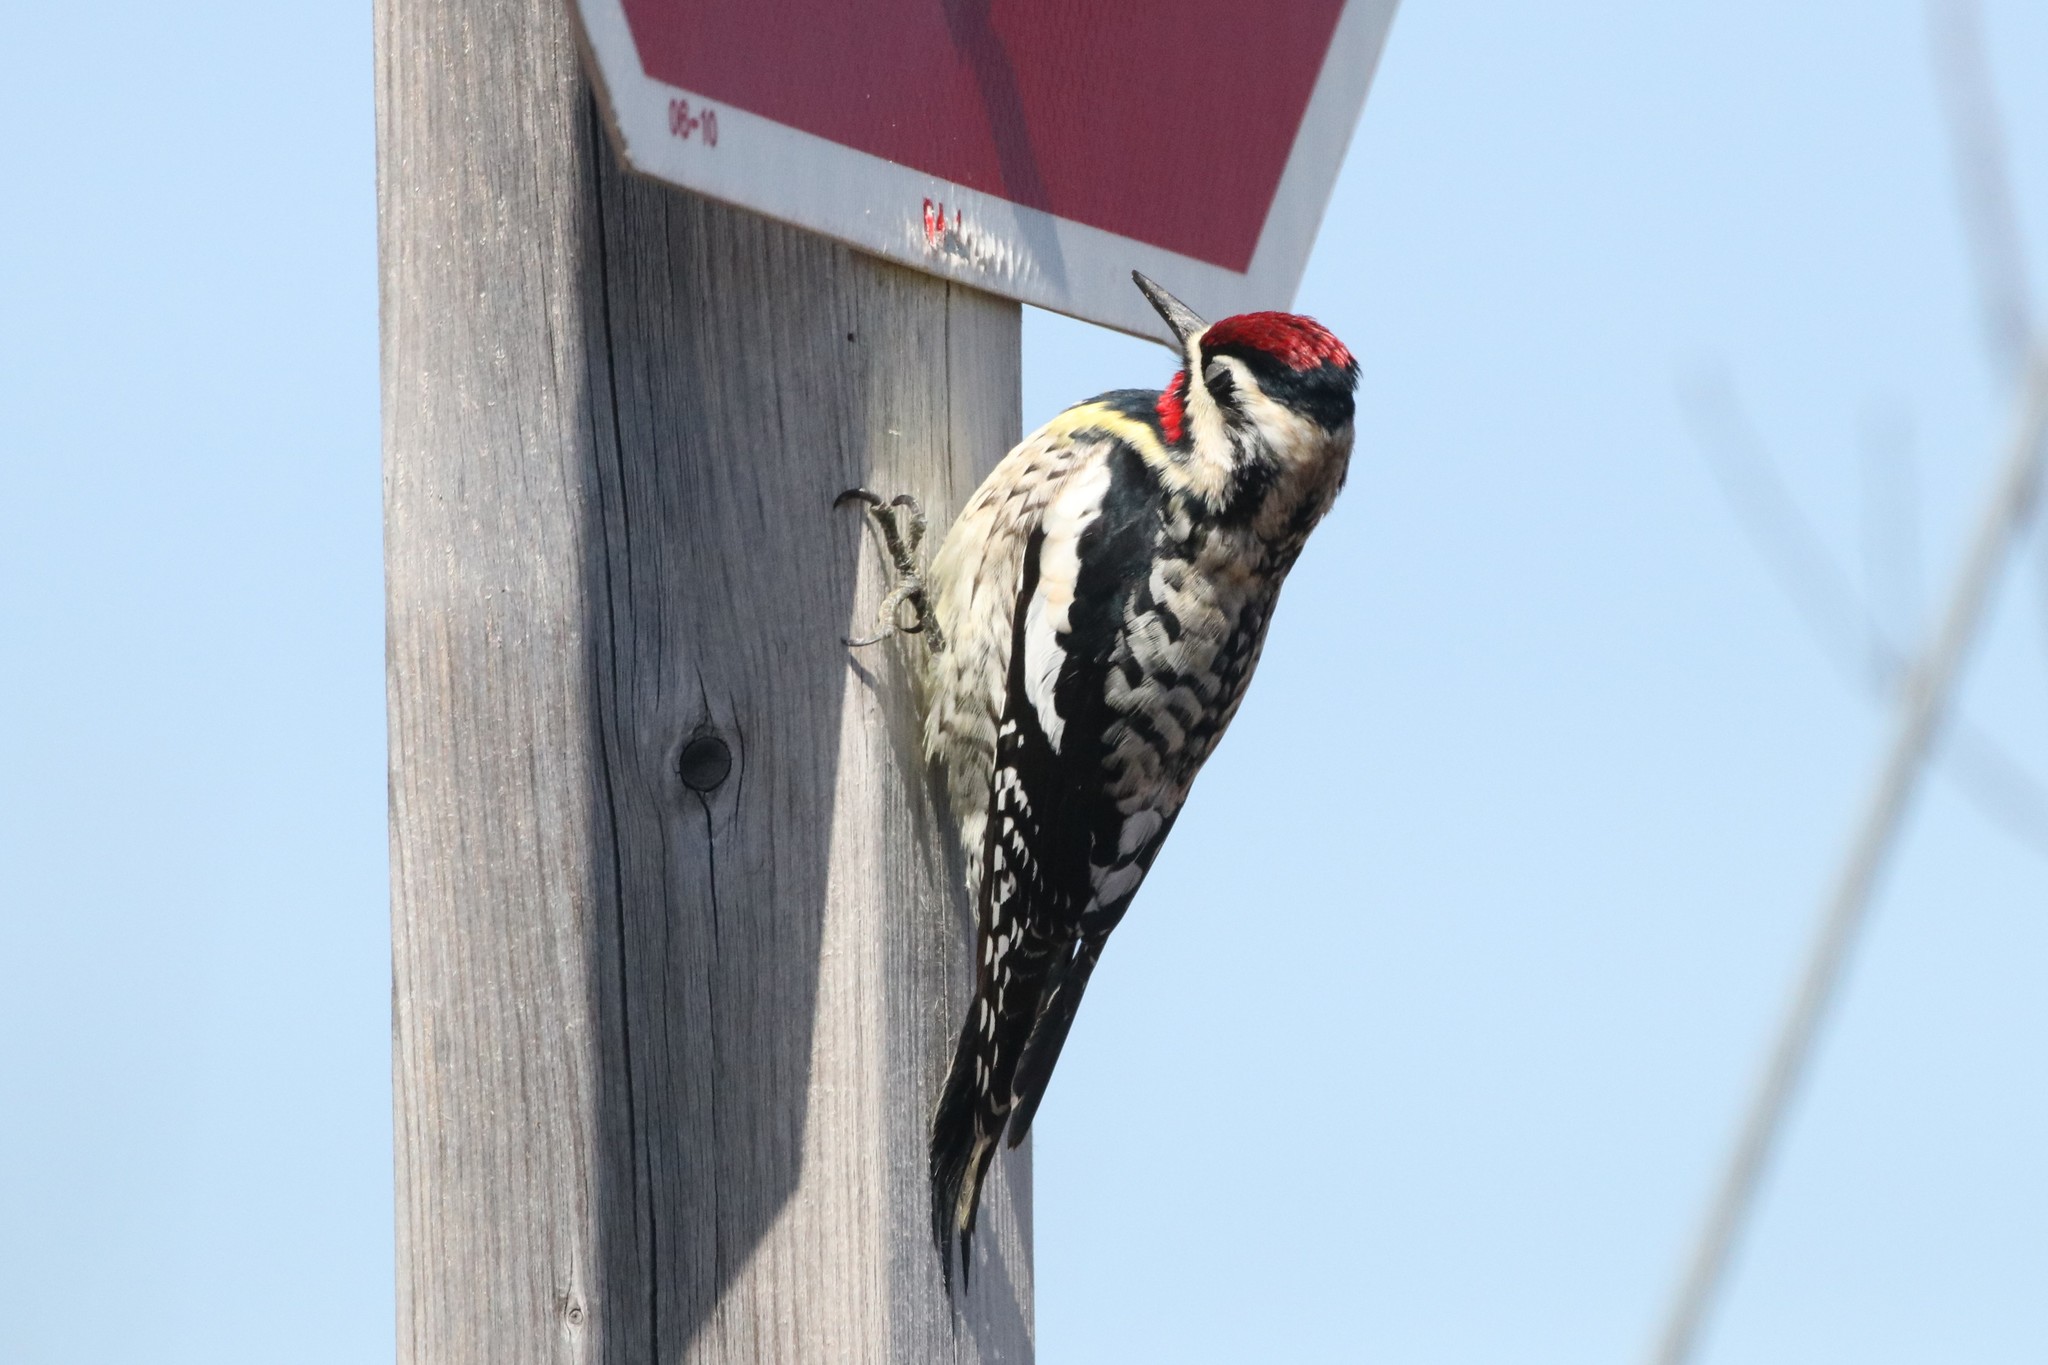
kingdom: Animalia
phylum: Chordata
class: Aves
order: Piciformes
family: Picidae
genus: Sphyrapicus
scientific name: Sphyrapicus varius
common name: Yellow-bellied sapsucker
